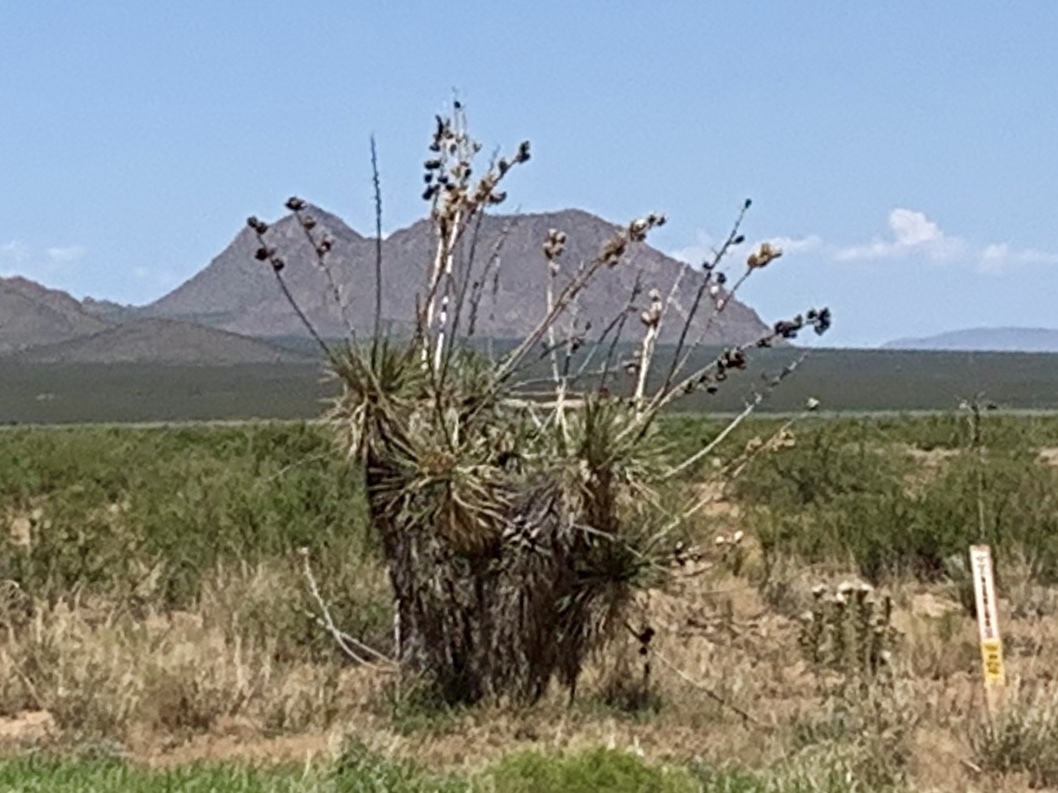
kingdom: Plantae
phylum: Tracheophyta
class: Liliopsida
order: Asparagales
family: Asparagaceae
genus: Yucca
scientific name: Yucca elata
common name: Palmella
